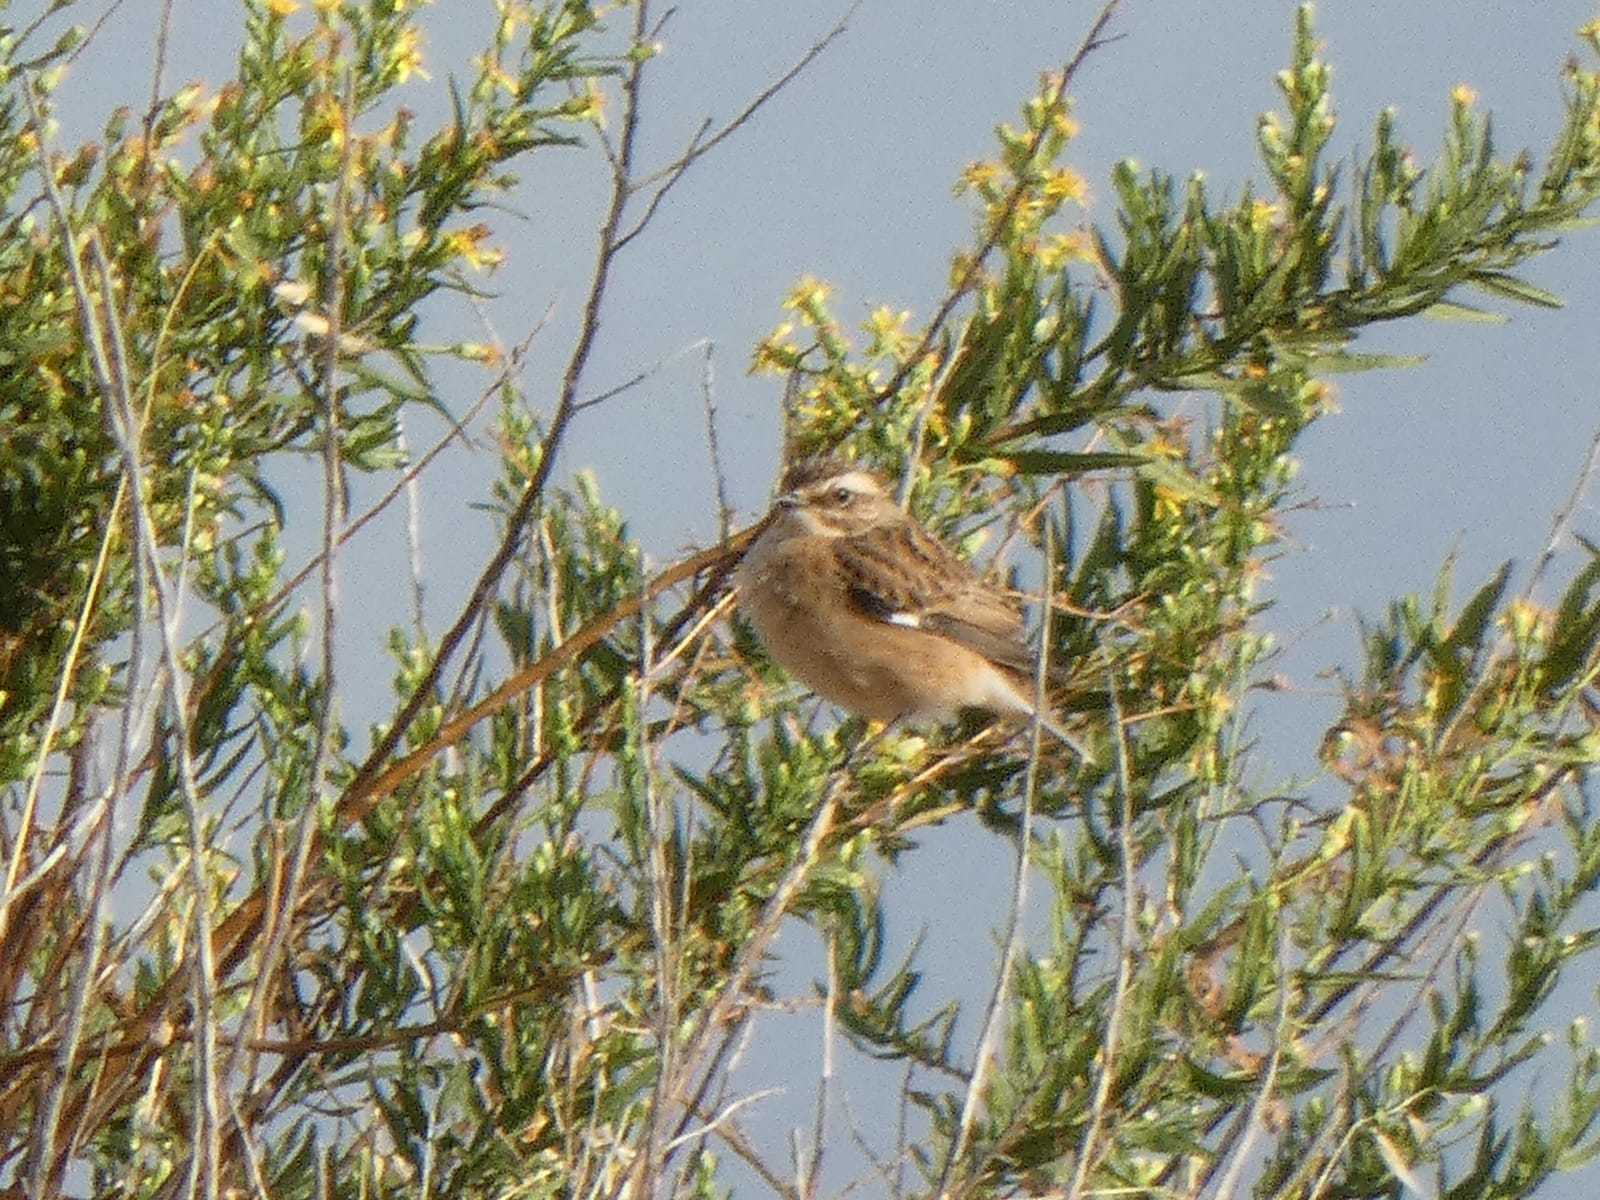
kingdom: Animalia
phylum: Chordata
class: Aves
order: Passeriformes
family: Muscicapidae
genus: Saxicola
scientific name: Saxicola rubetra
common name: Whinchat
